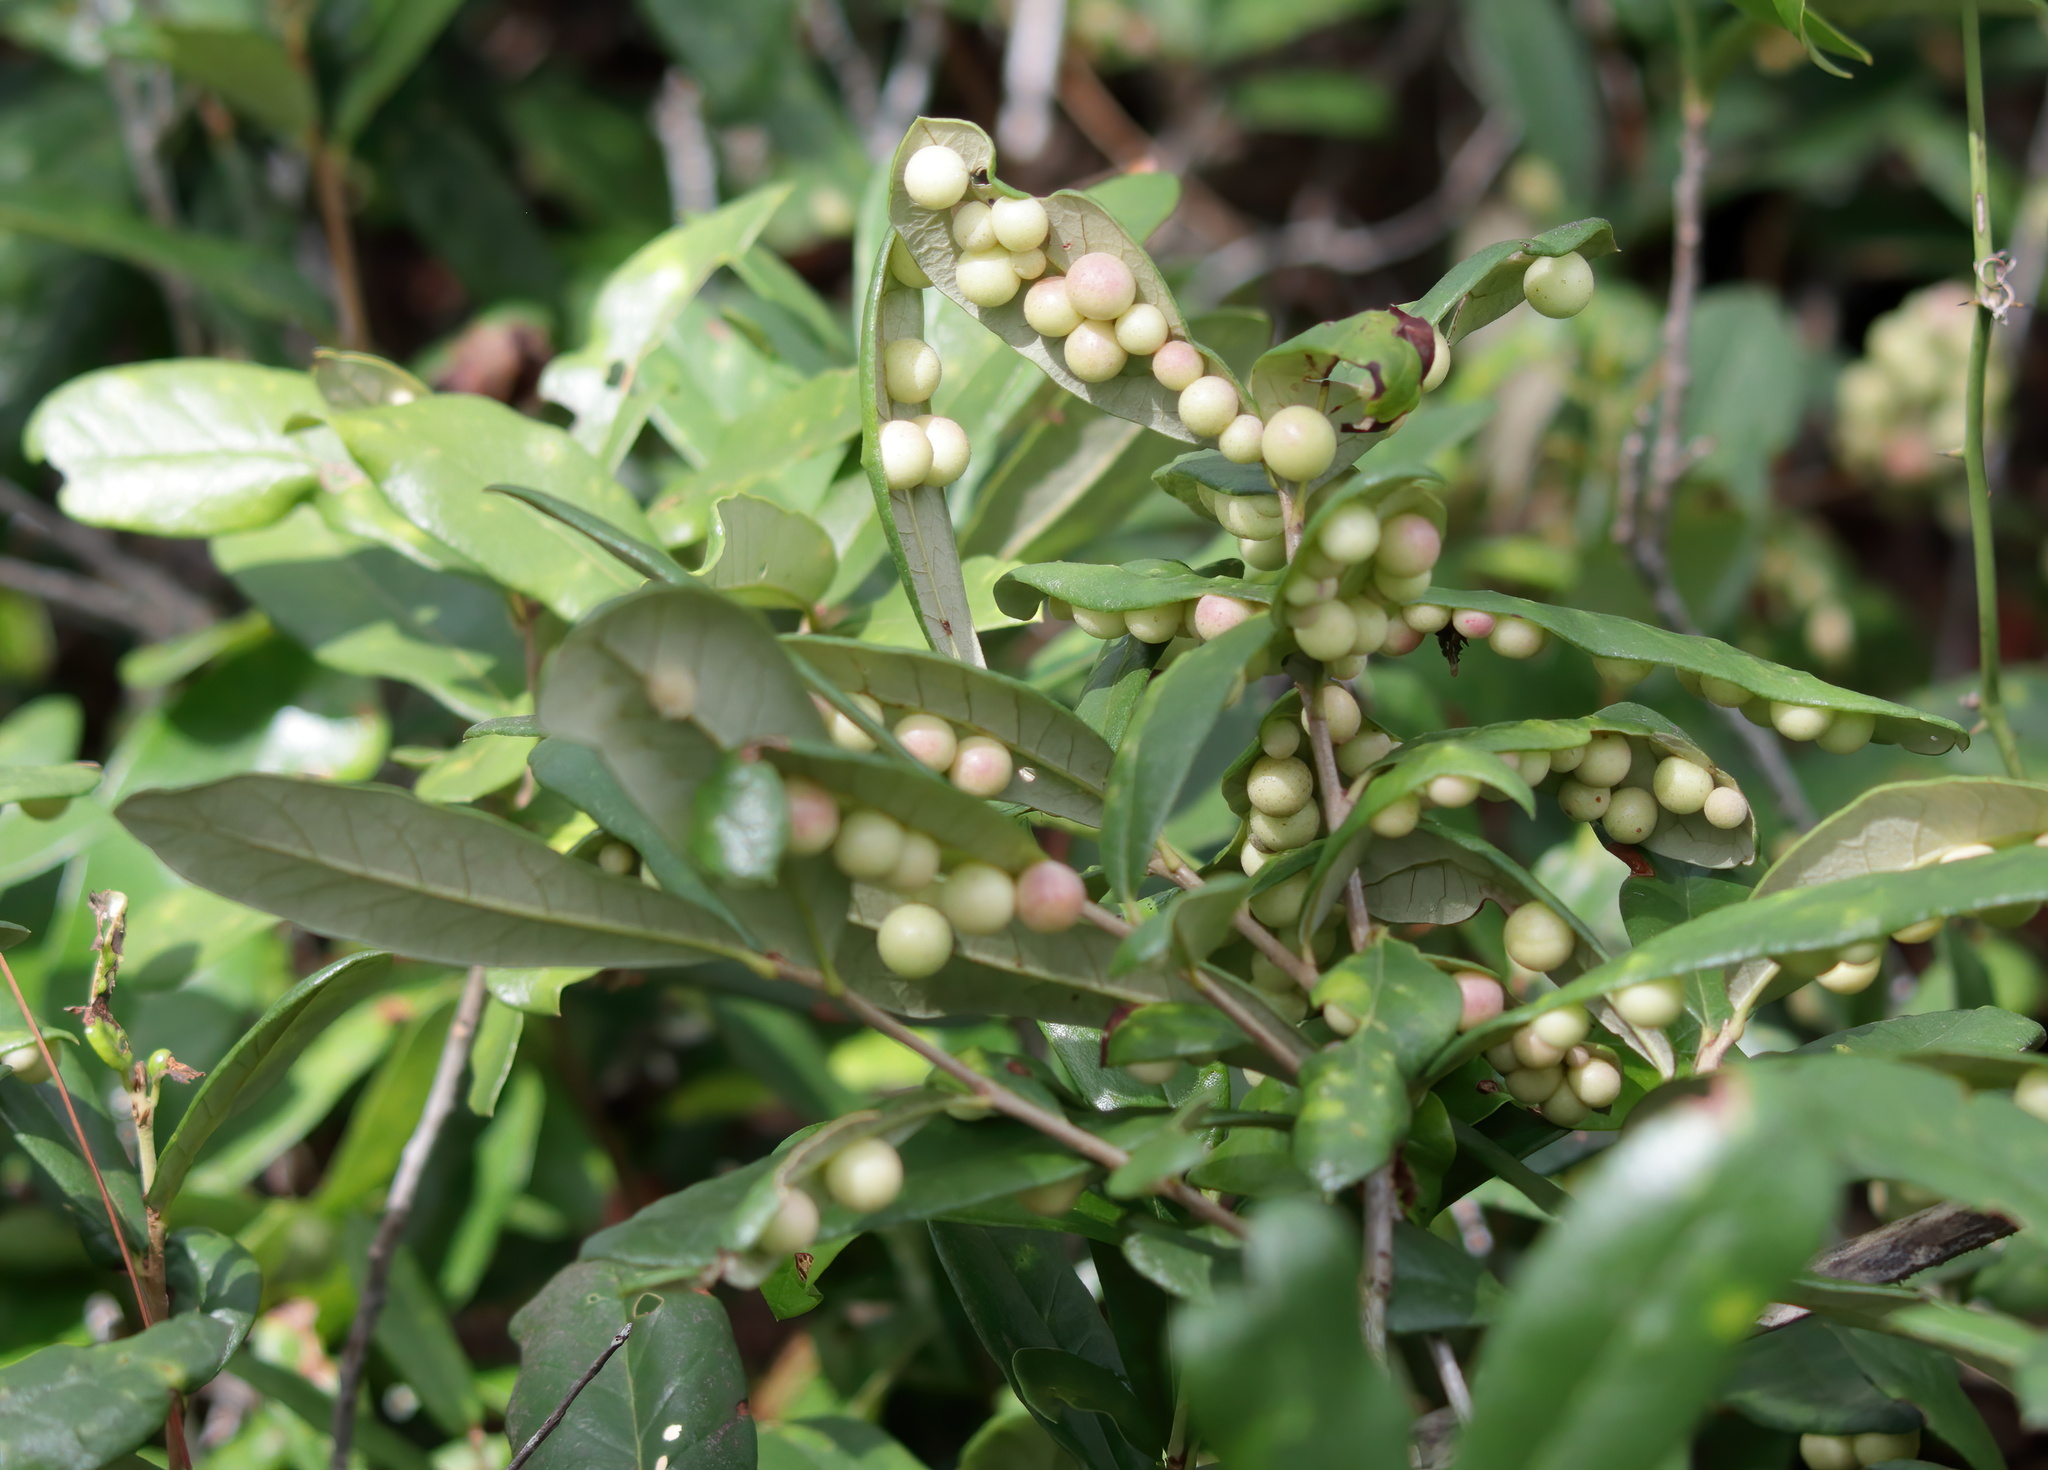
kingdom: Animalia
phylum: Arthropoda
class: Insecta
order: Hymenoptera
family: Cynipidae
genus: Belonocnema
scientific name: Belonocnema treatae
